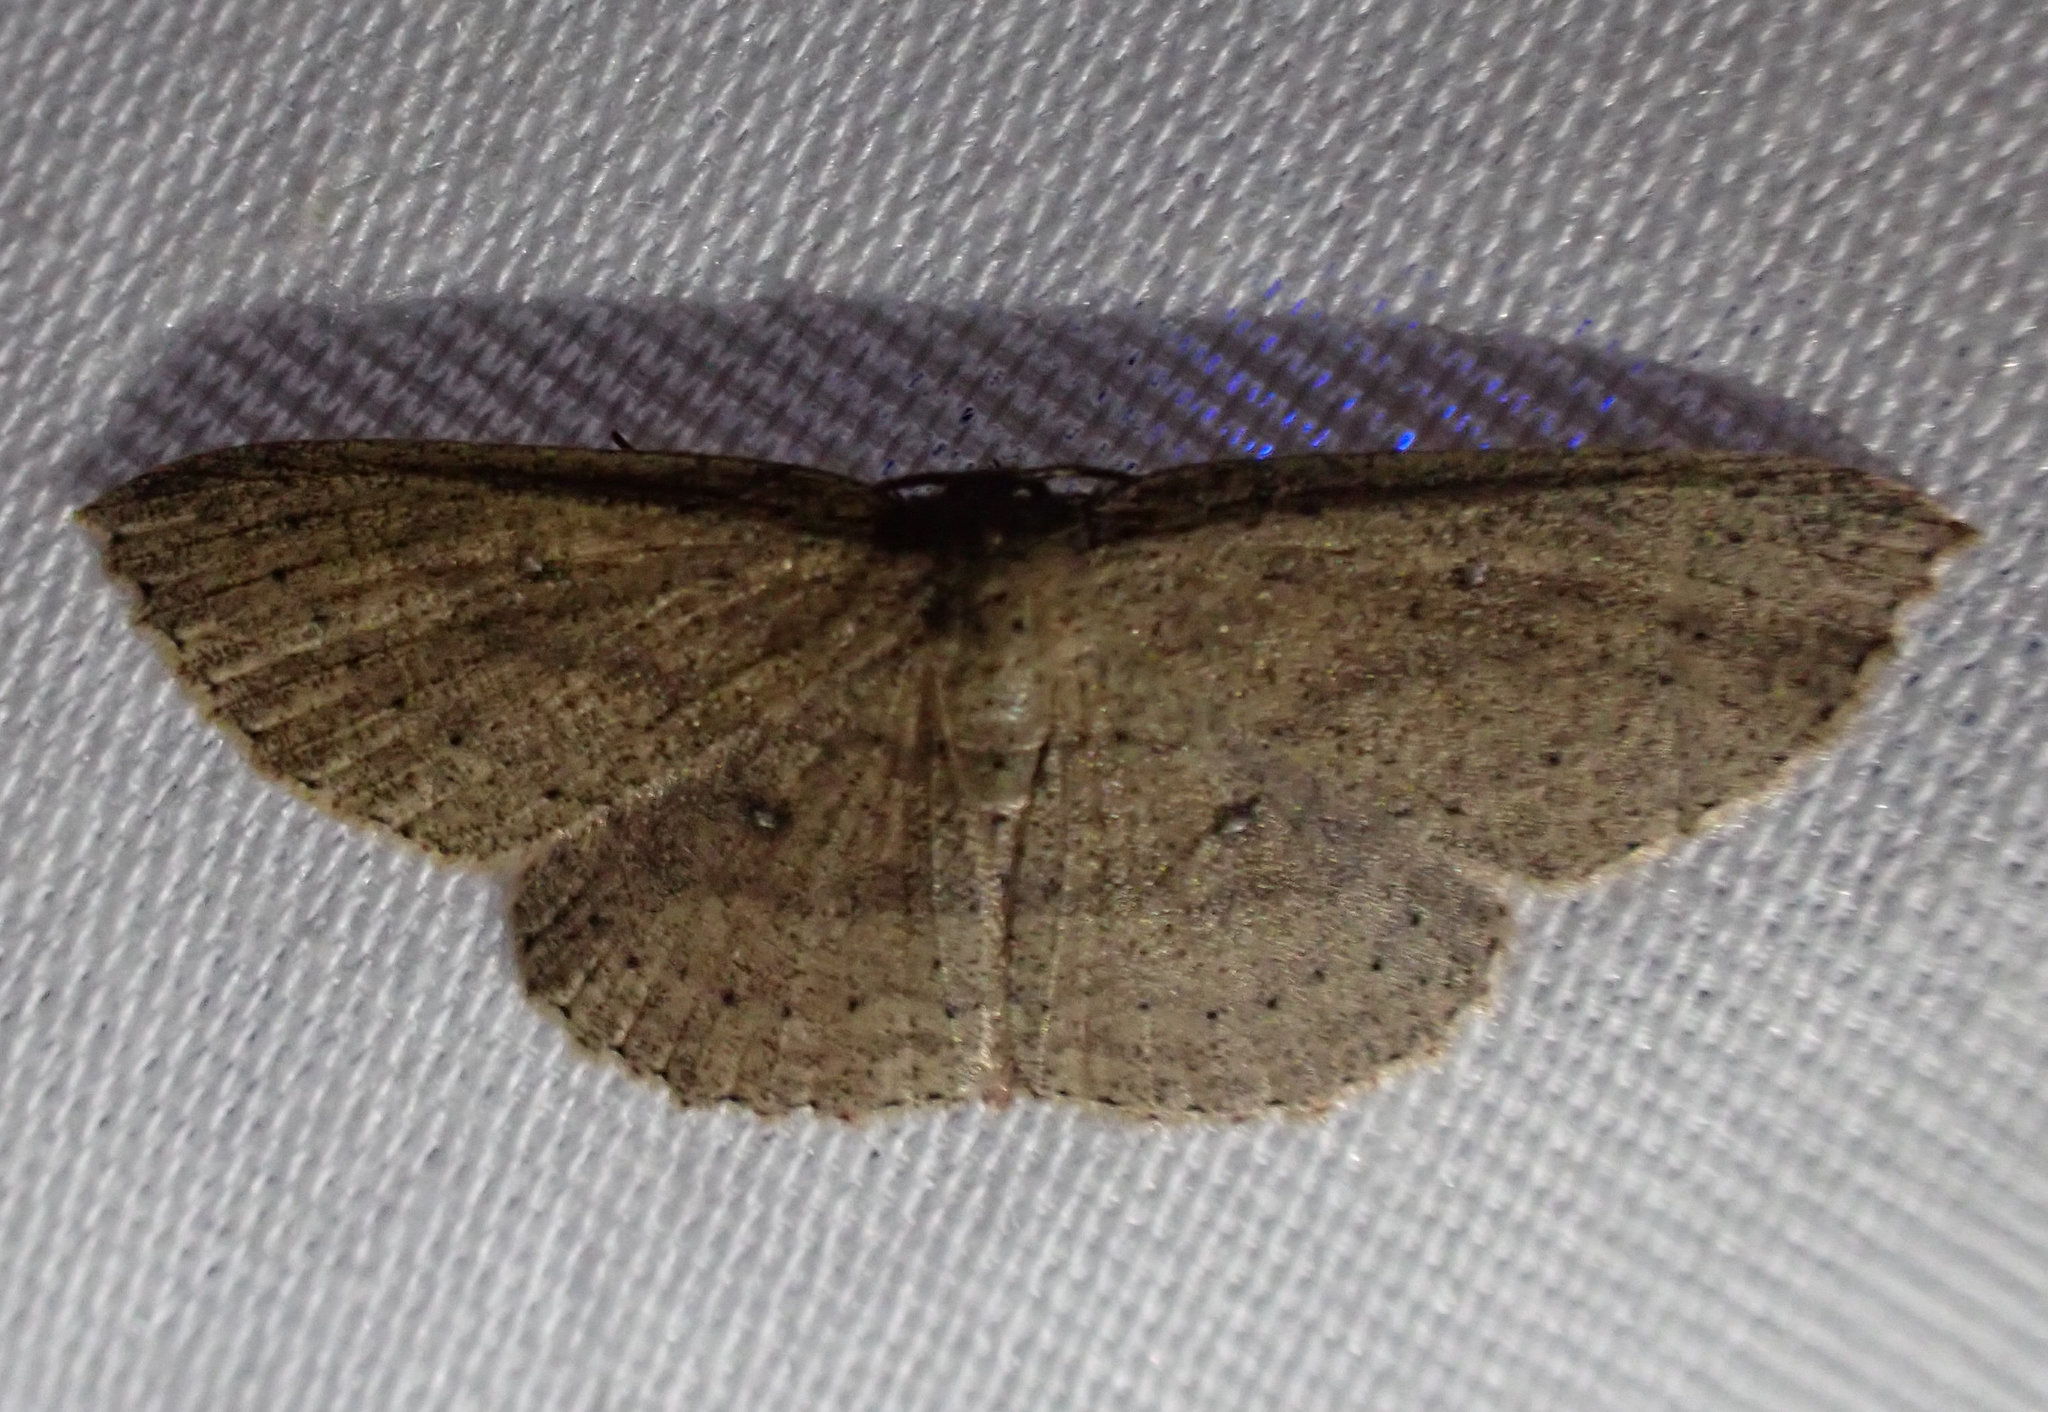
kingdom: Animalia
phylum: Arthropoda
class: Insecta
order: Lepidoptera
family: Geometridae
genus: Cyclophora
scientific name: Cyclophora myrtaria
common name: Waxmyrtle wave moth
